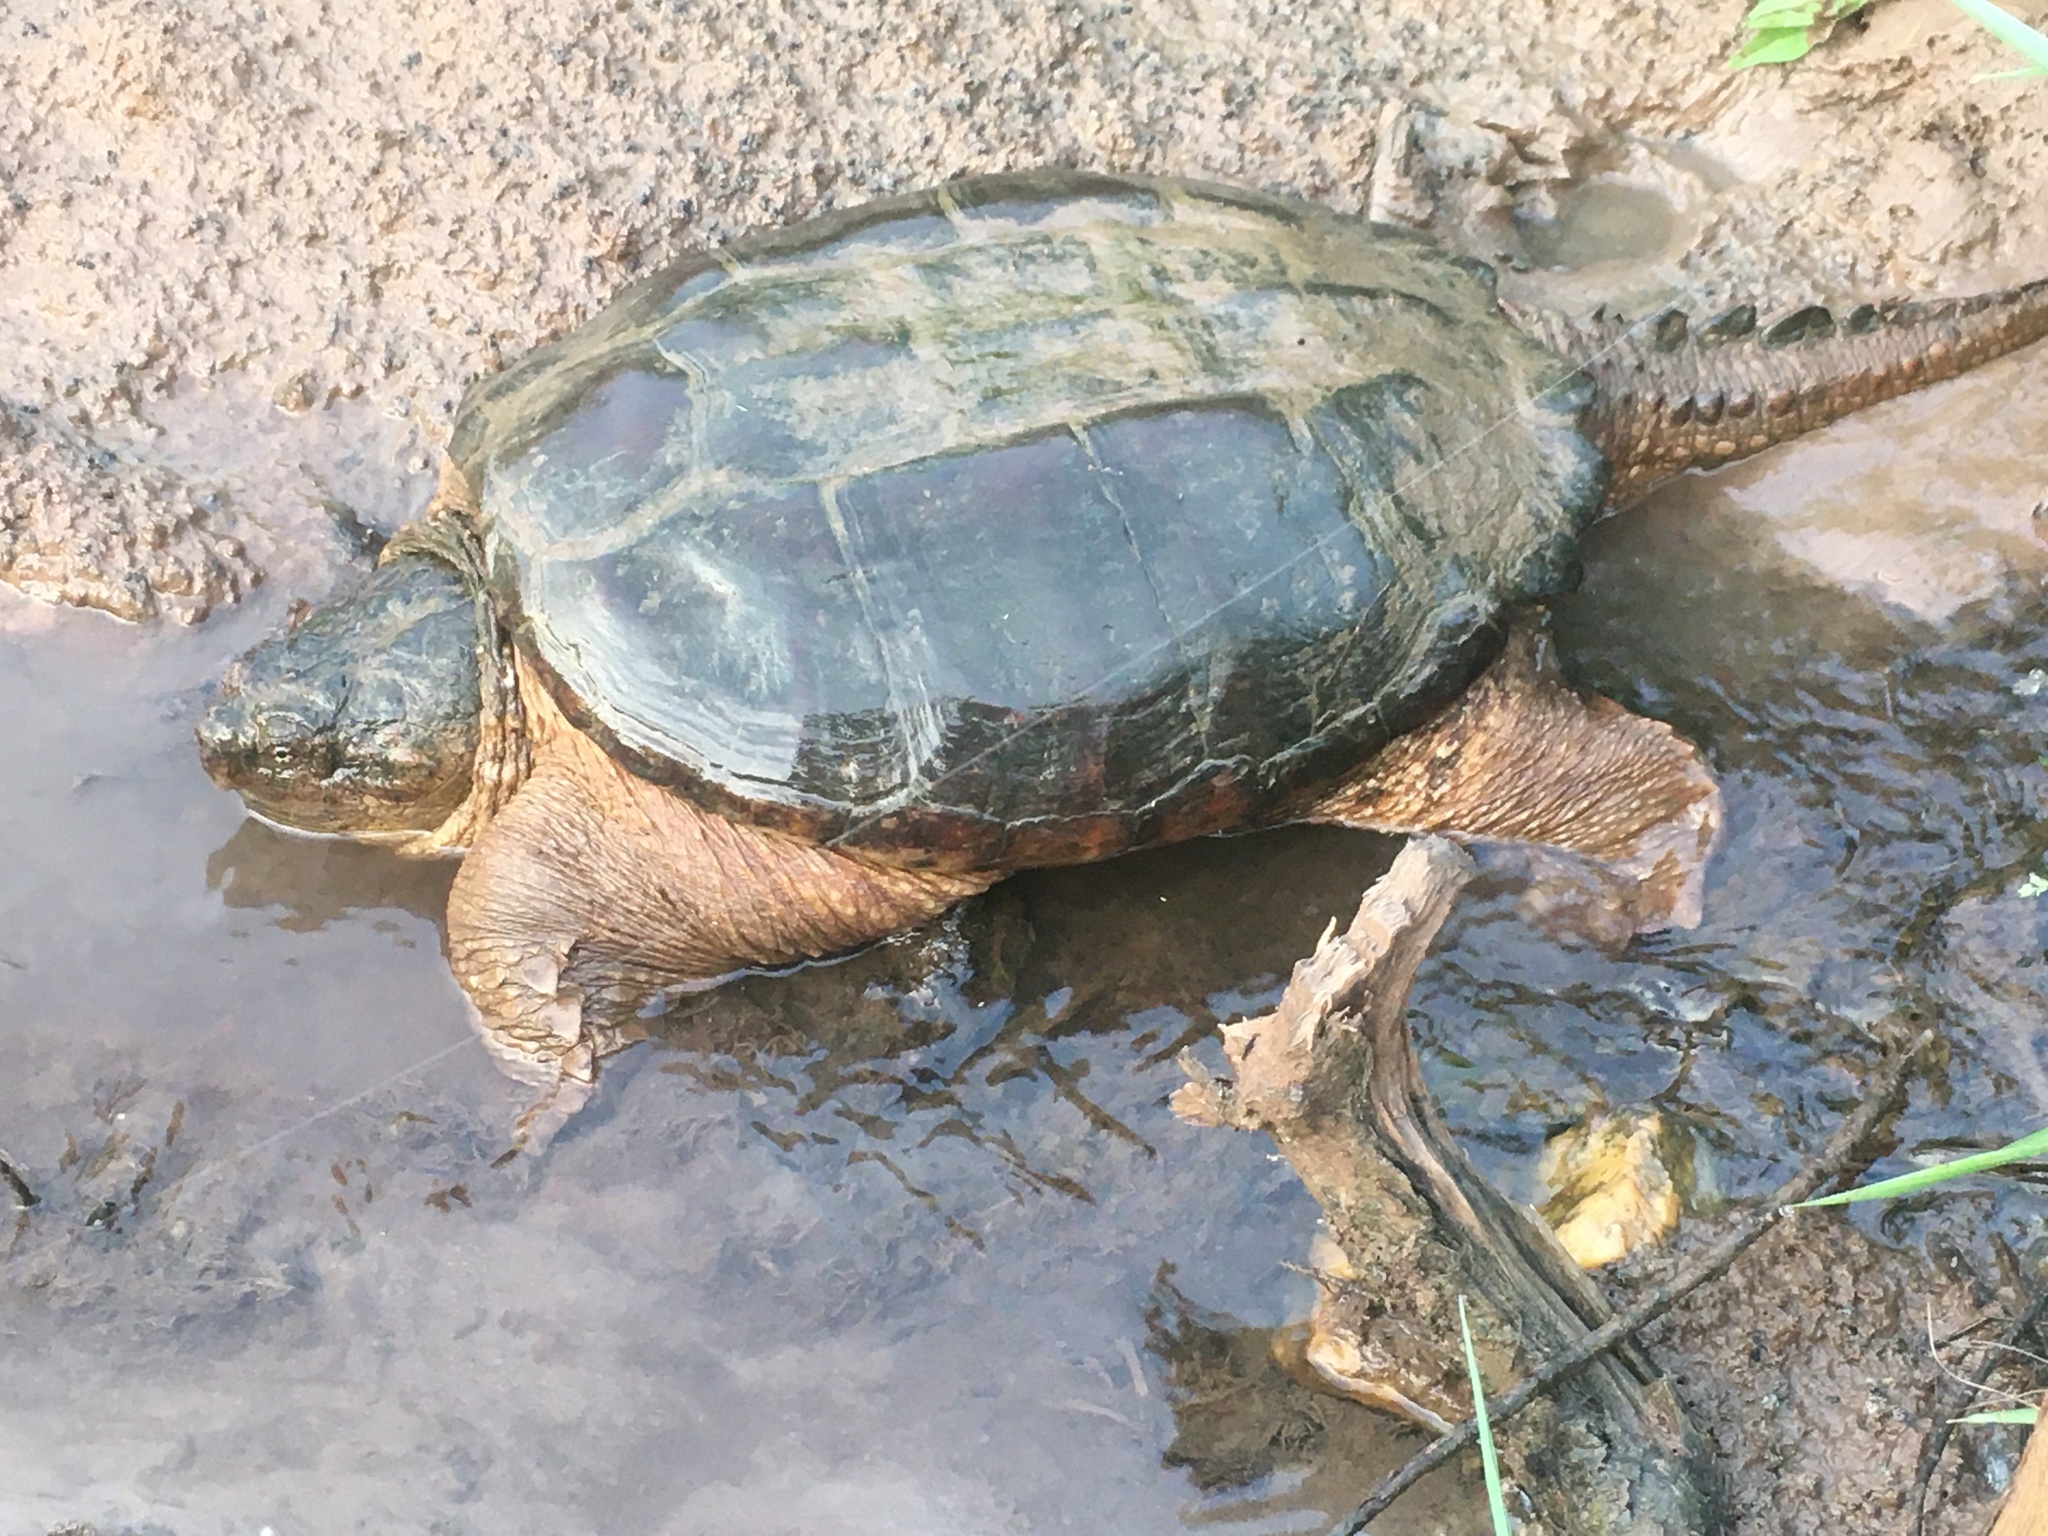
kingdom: Animalia
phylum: Chordata
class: Testudines
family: Chelydridae
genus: Chelydra
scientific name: Chelydra serpentina
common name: Common snapping turtle
